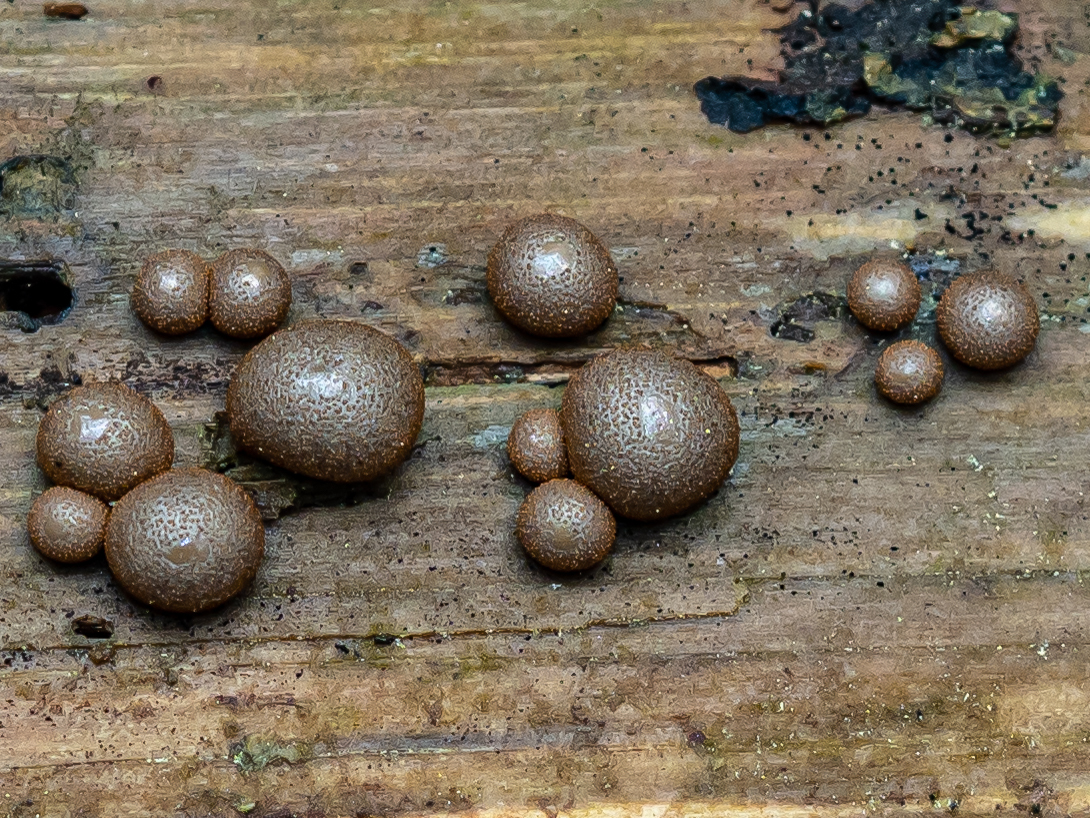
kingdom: Protozoa
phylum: Mycetozoa
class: Myxomycetes
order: Cribrariales
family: Tubiferaceae
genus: Lycogala
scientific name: Lycogala epidendrum
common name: Wolf's milk
